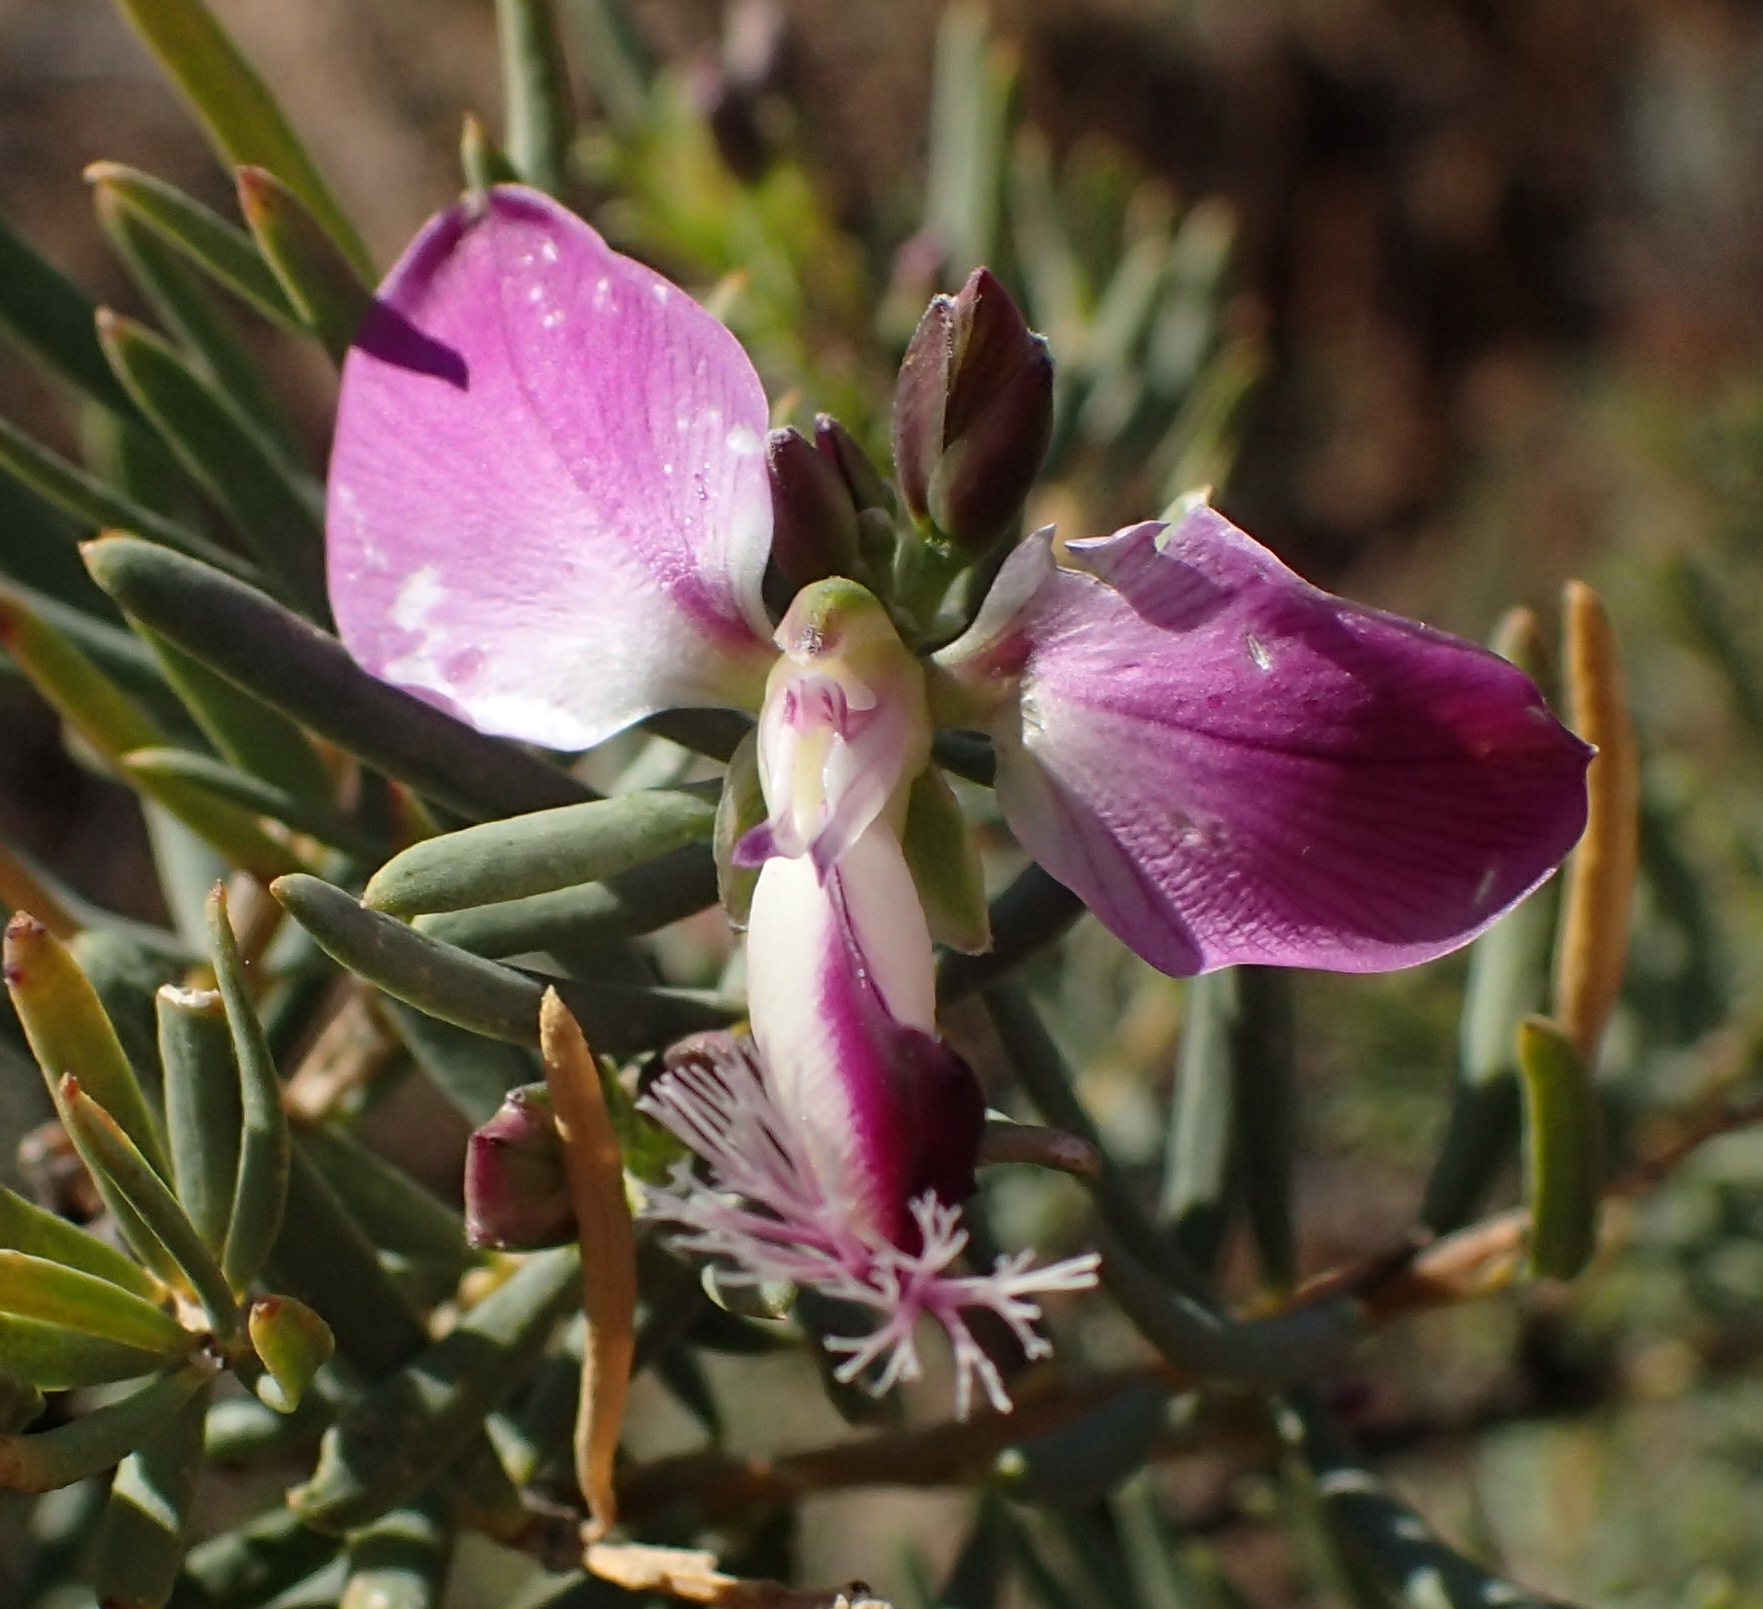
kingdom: Plantae
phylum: Tracheophyta
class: Magnoliopsida
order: Fabales
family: Polygalaceae
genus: Polygala
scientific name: Polygala myrtifolia
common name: Myrtle-leaf milkwort
